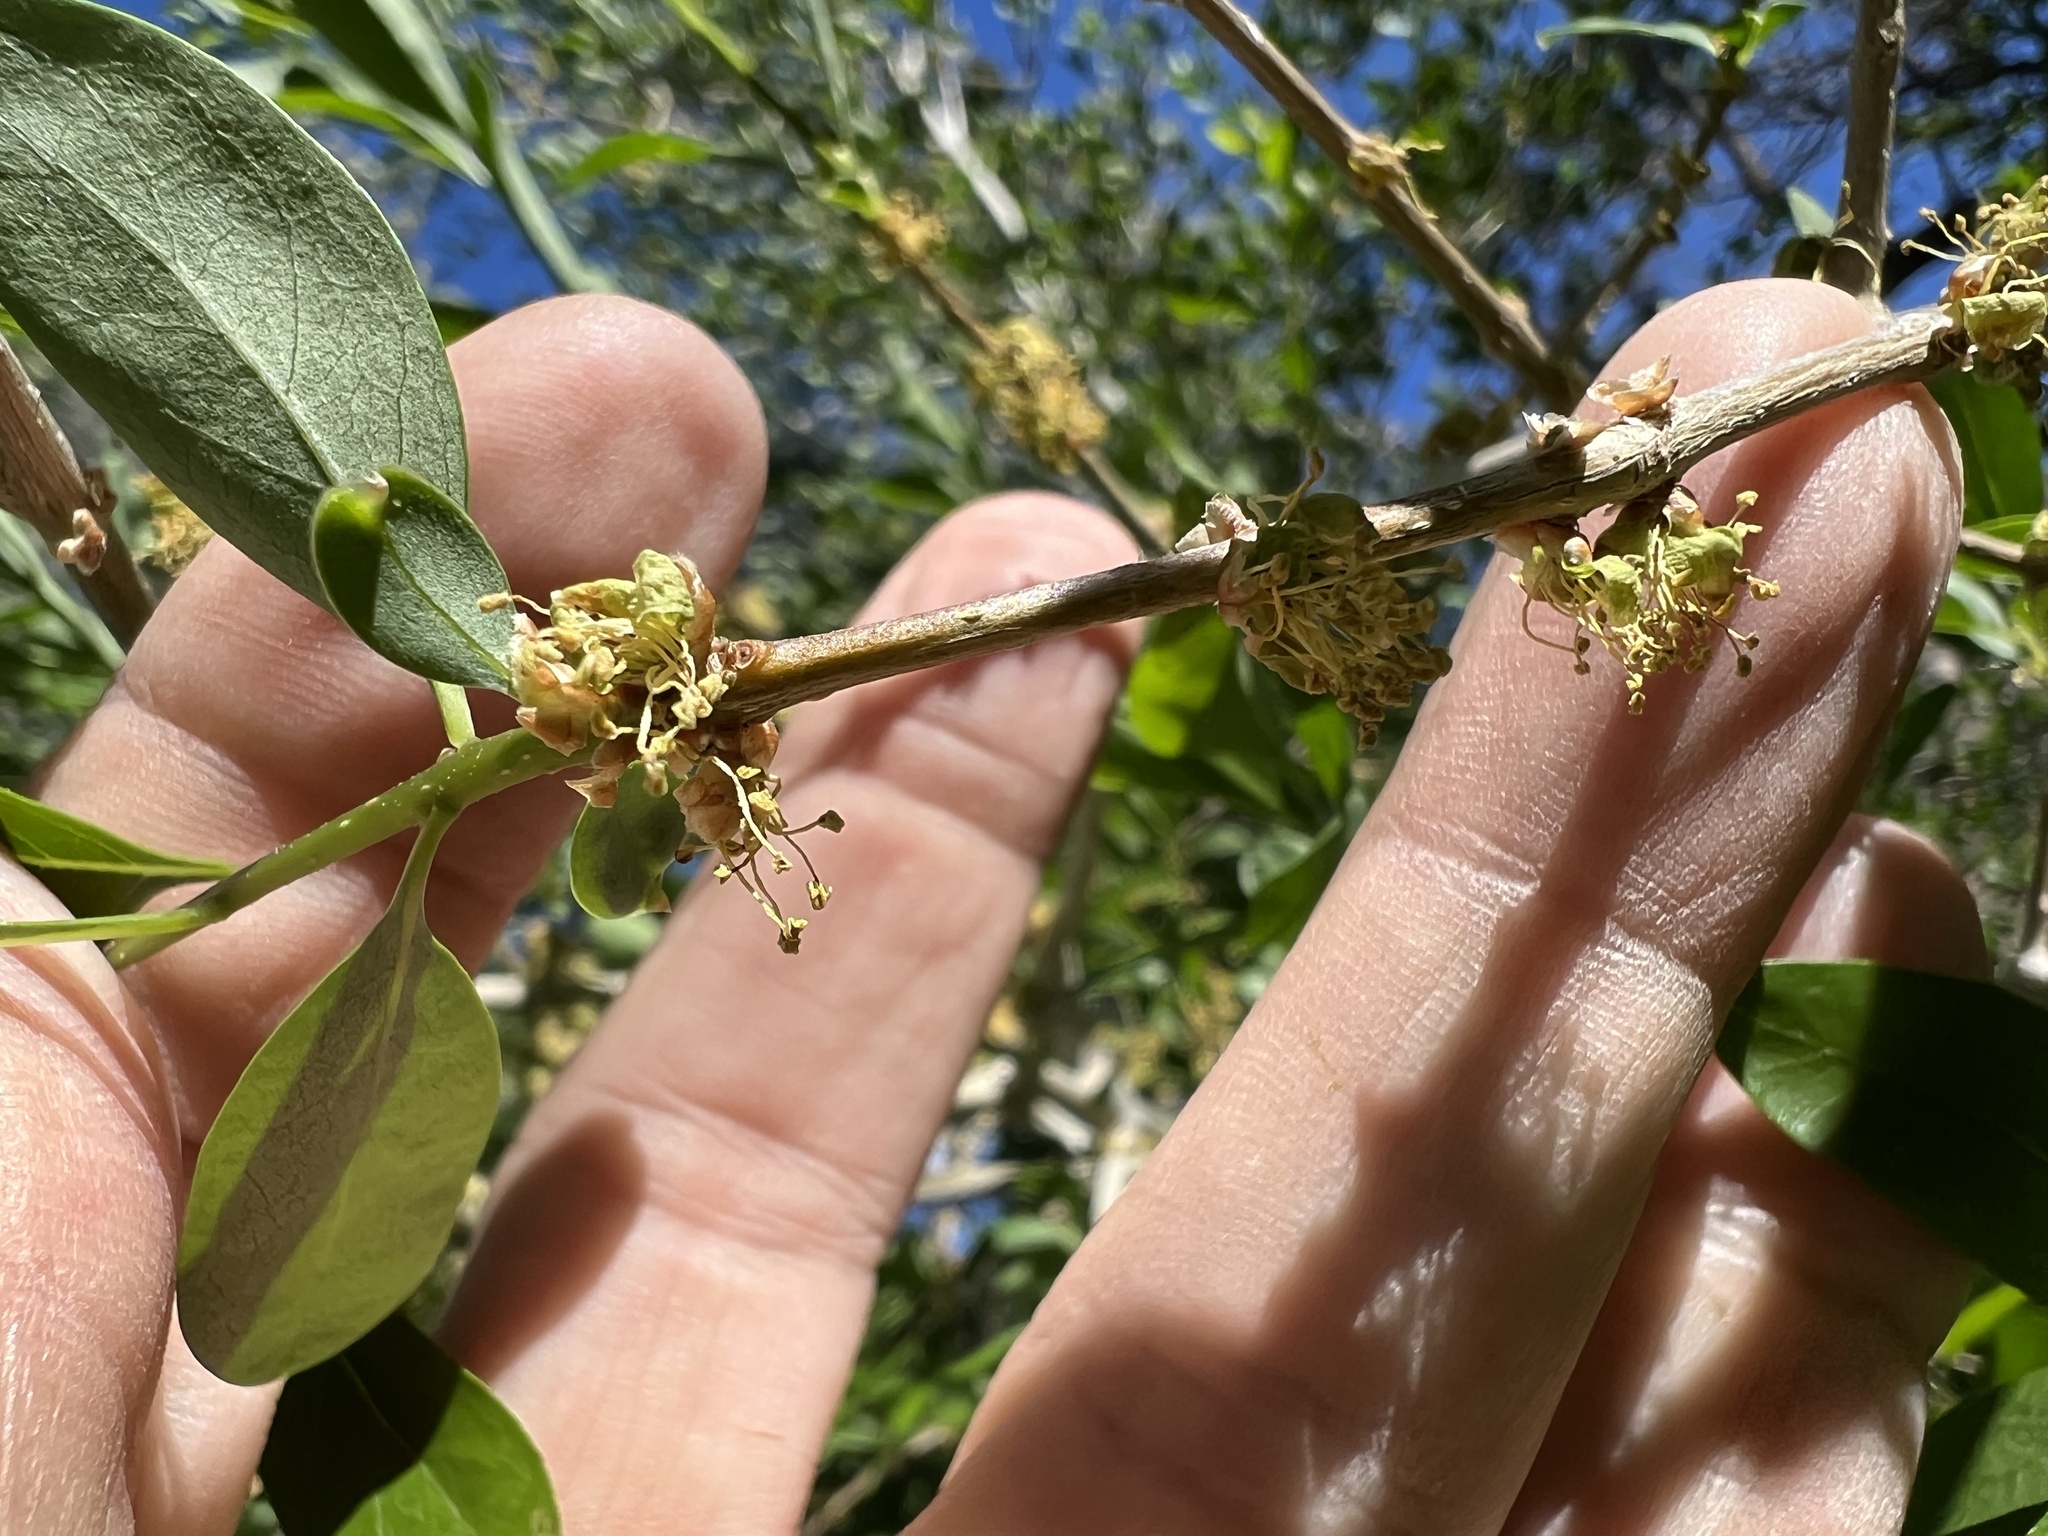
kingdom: Plantae
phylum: Tracheophyta
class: Magnoliopsida
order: Lamiales
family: Oleaceae
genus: Forestiera
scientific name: Forestiera pubescens
